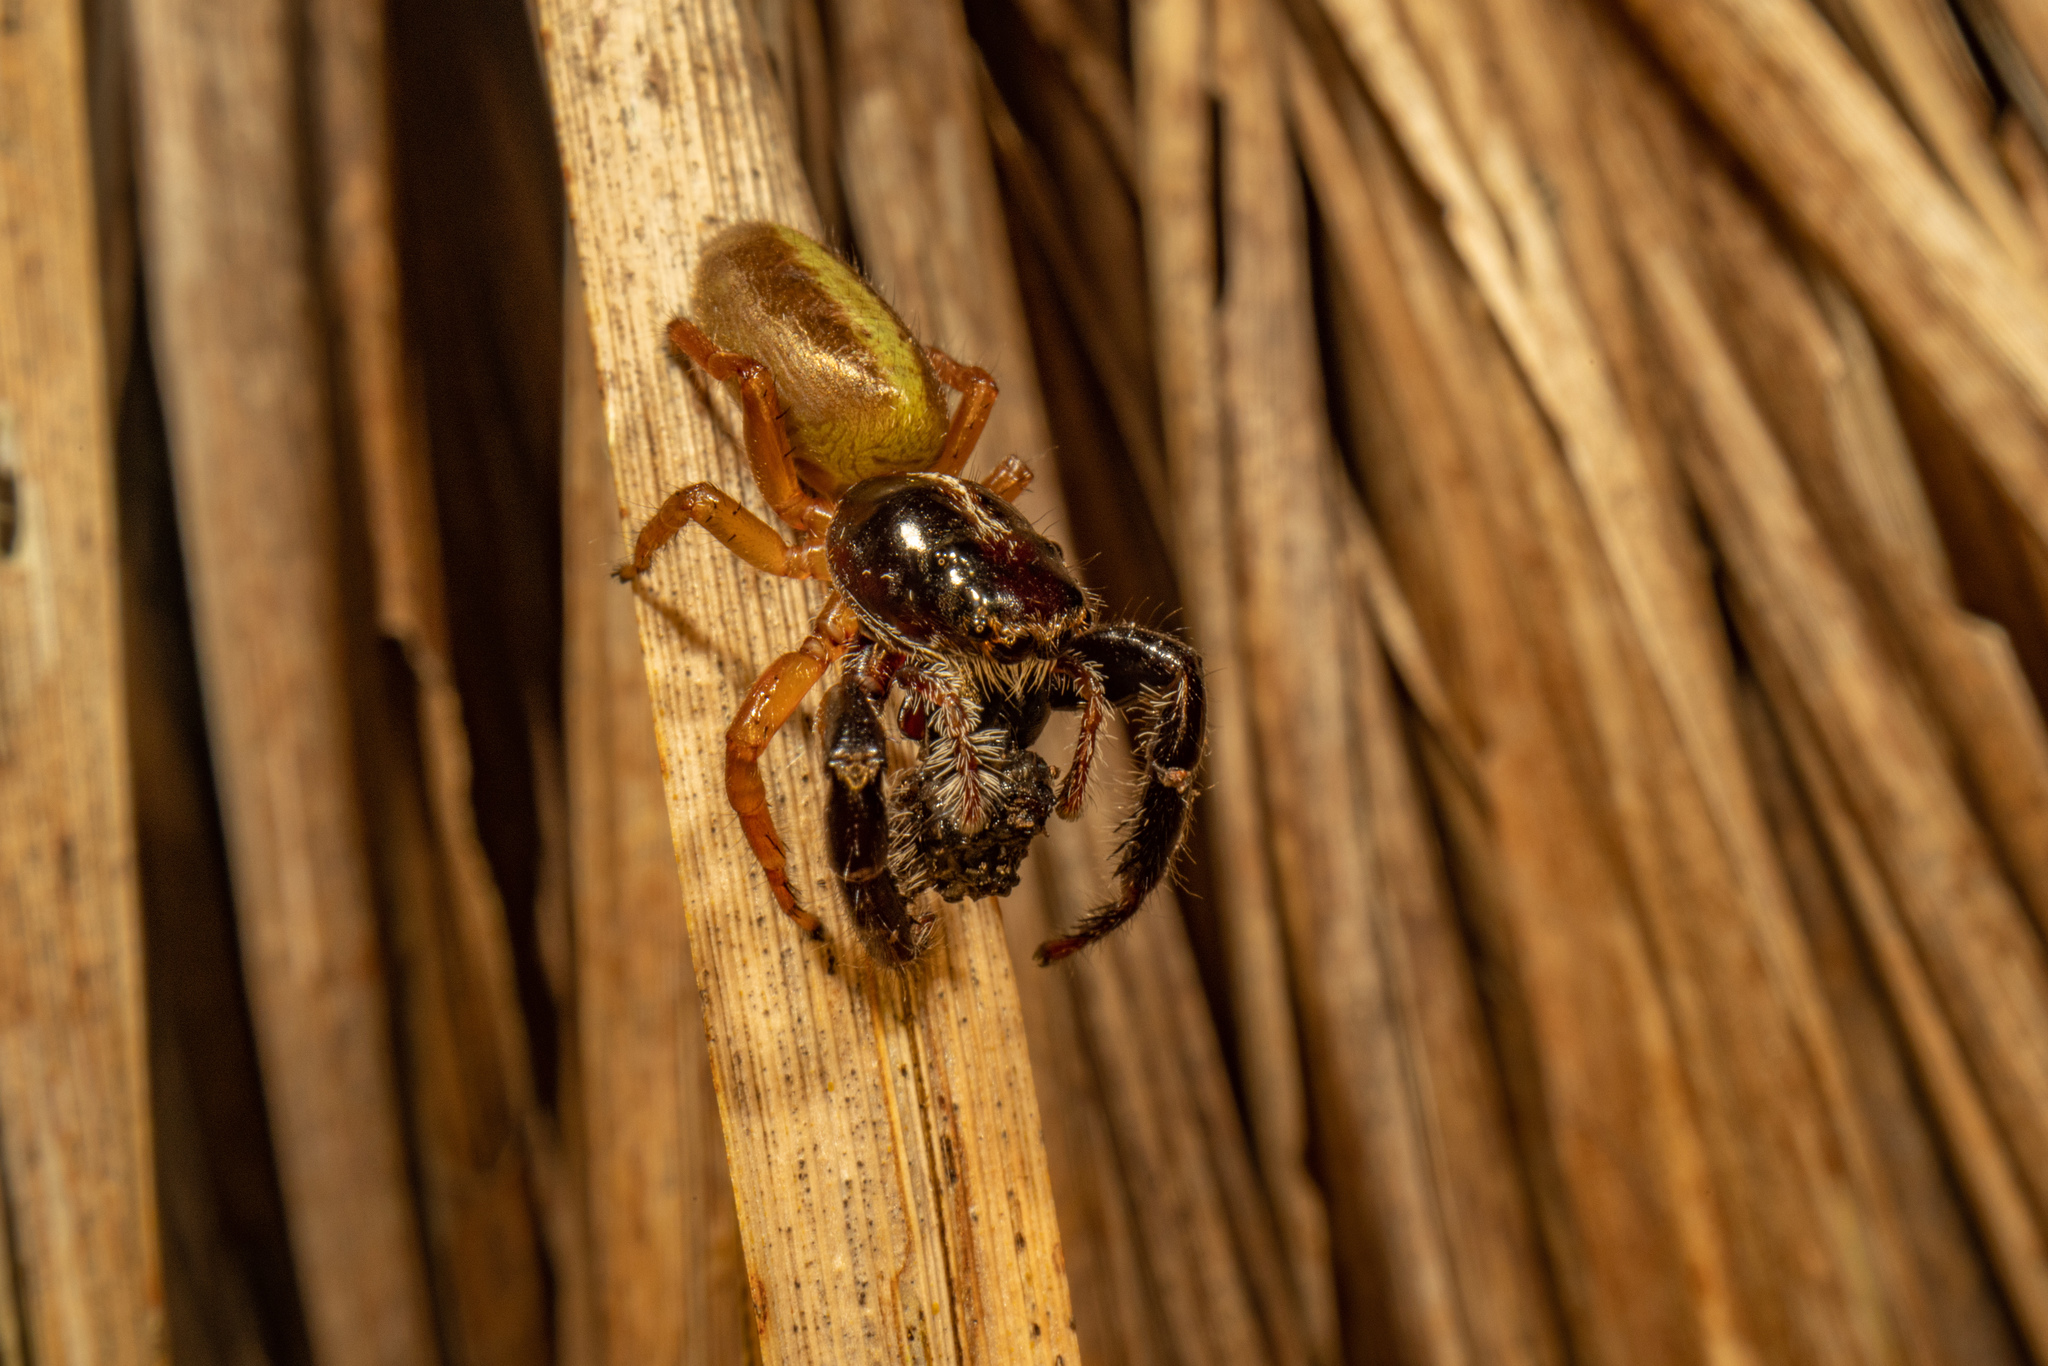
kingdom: Animalia
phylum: Arthropoda
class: Arachnida
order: Araneae
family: Salticidae
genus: Trite
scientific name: Trite planiceps
